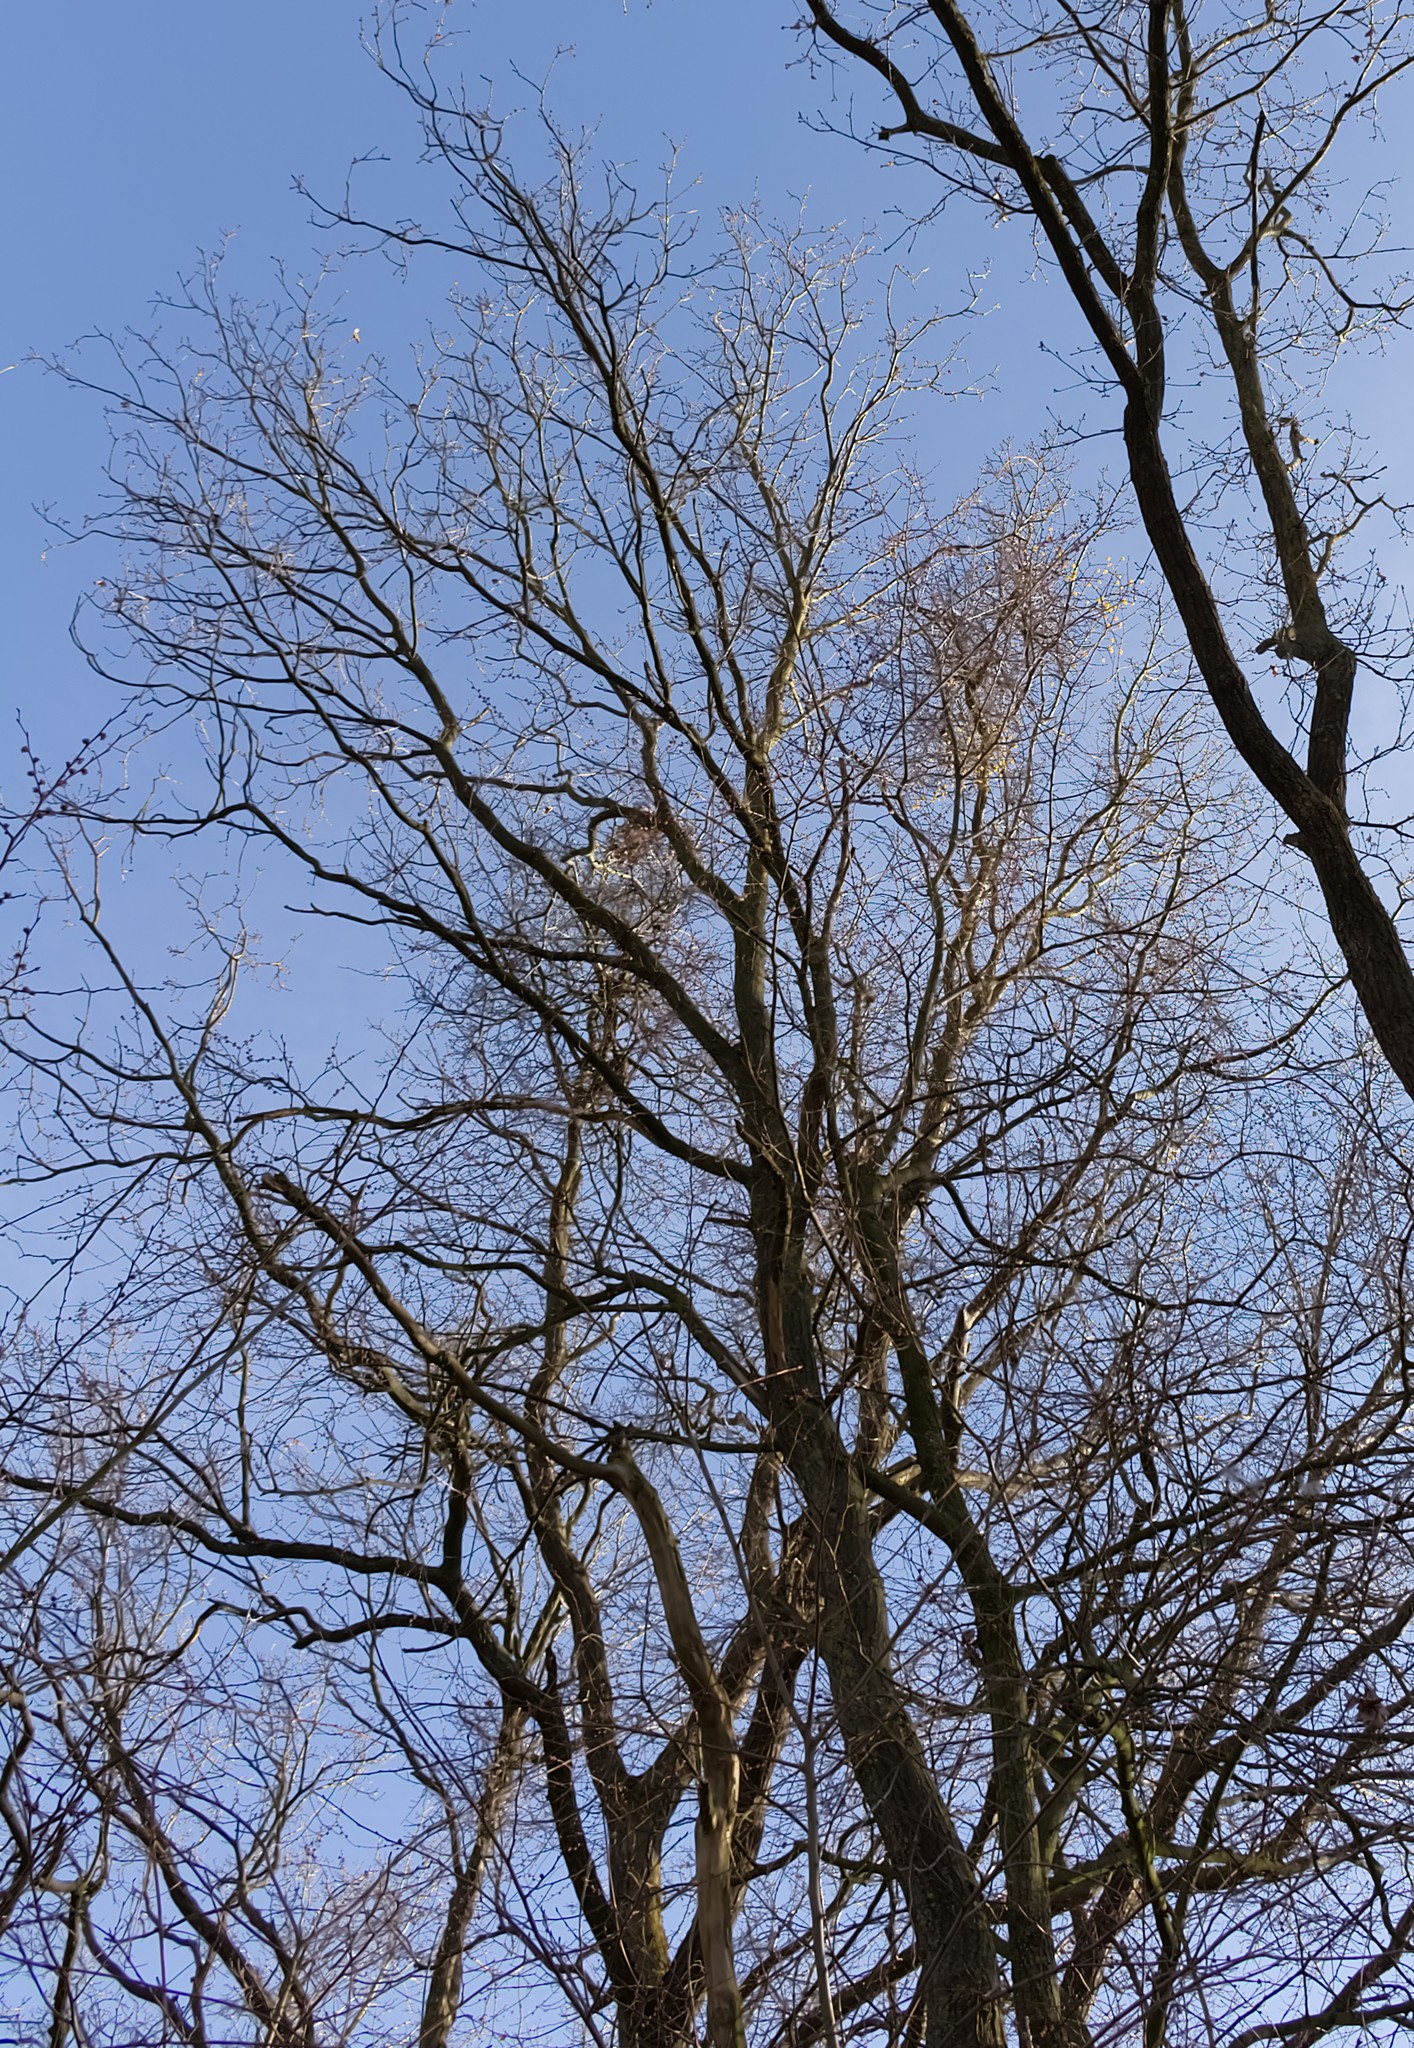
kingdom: Plantae
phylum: Tracheophyta
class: Magnoliopsida
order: Rosales
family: Ulmaceae
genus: Ulmus
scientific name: Ulmus glabra
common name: Wych elm
